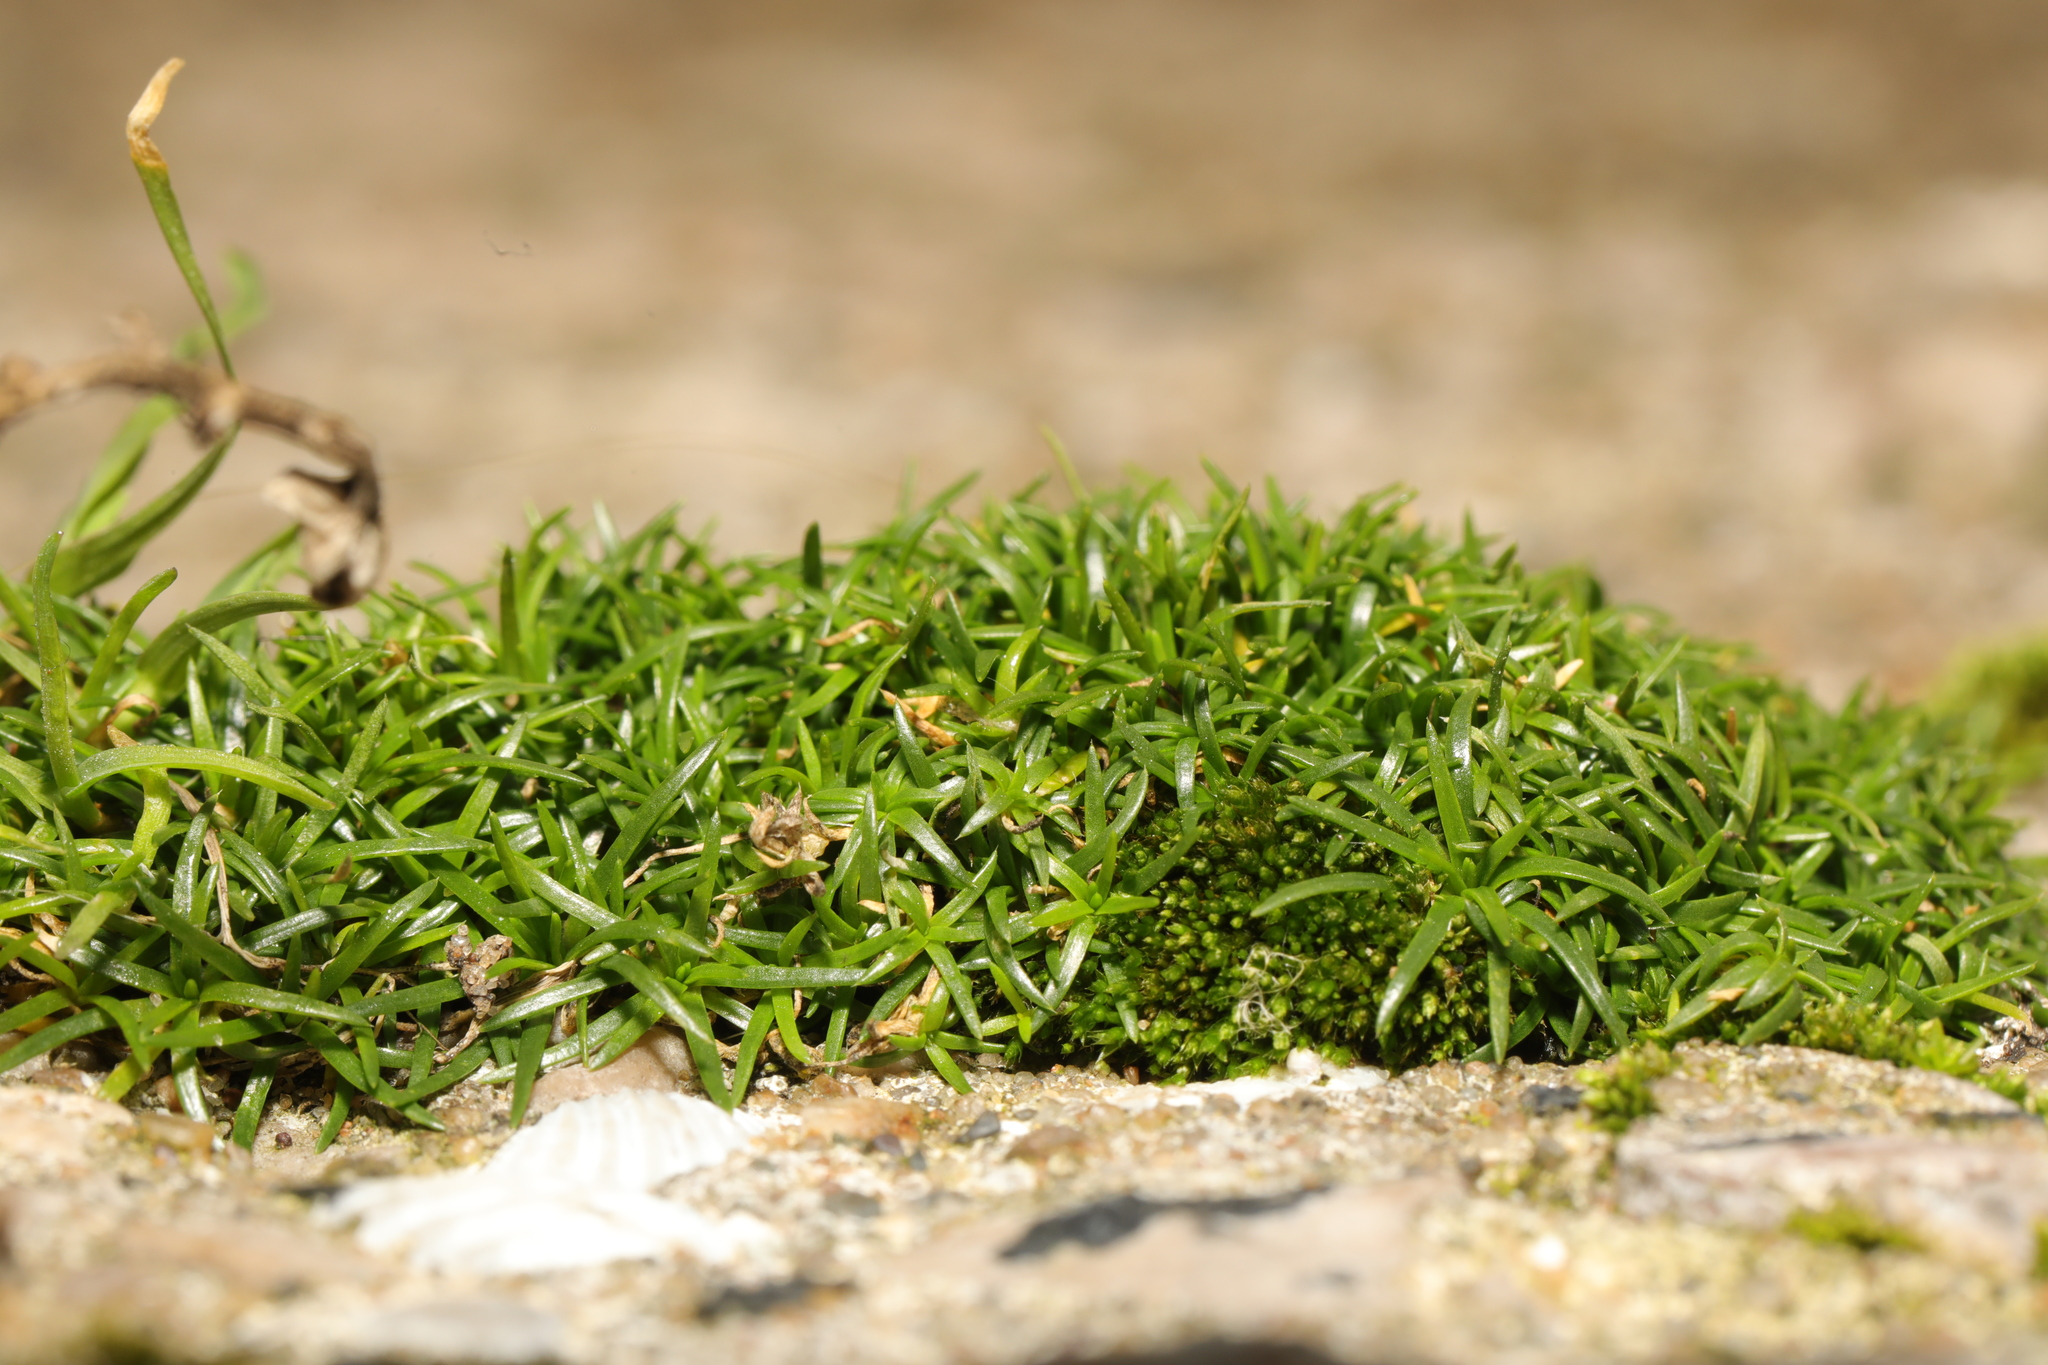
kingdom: Plantae
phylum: Tracheophyta
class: Magnoliopsida
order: Caryophyllales
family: Caryophyllaceae
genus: Sagina
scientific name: Sagina procumbens
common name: Procumbent pearlwort
